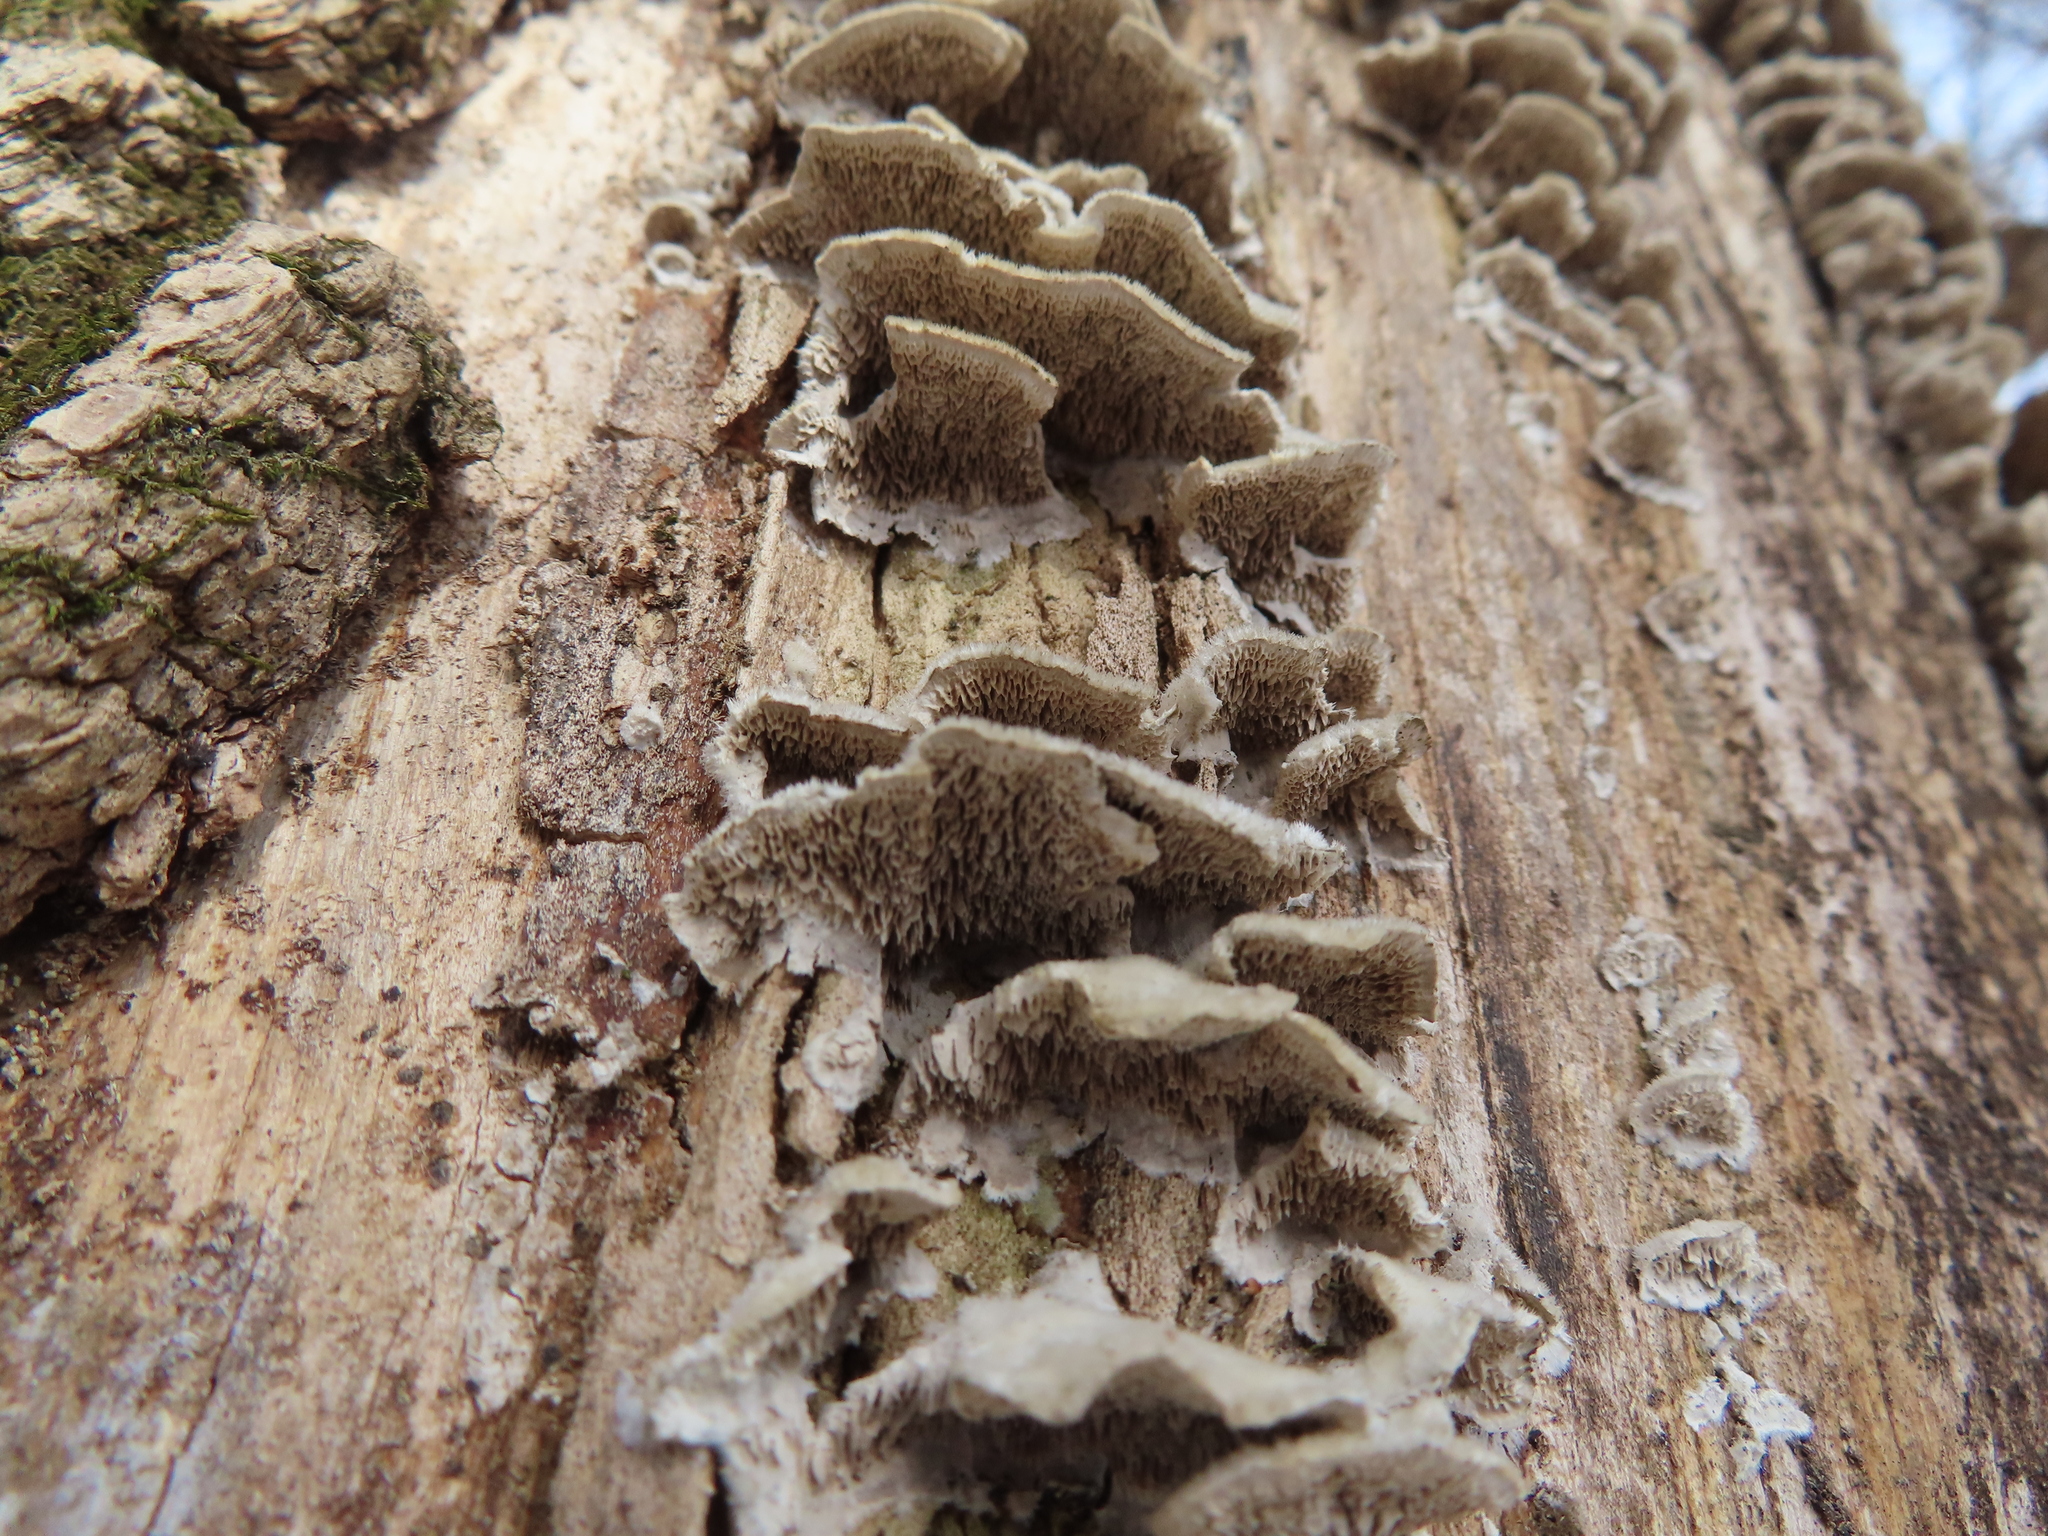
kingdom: Fungi
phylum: Basidiomycota
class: Agaricomycetes
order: Polyporales
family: Cerrenaceae
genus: Cerrena
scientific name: Cerrena unicolor
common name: Mossy maze polypore
